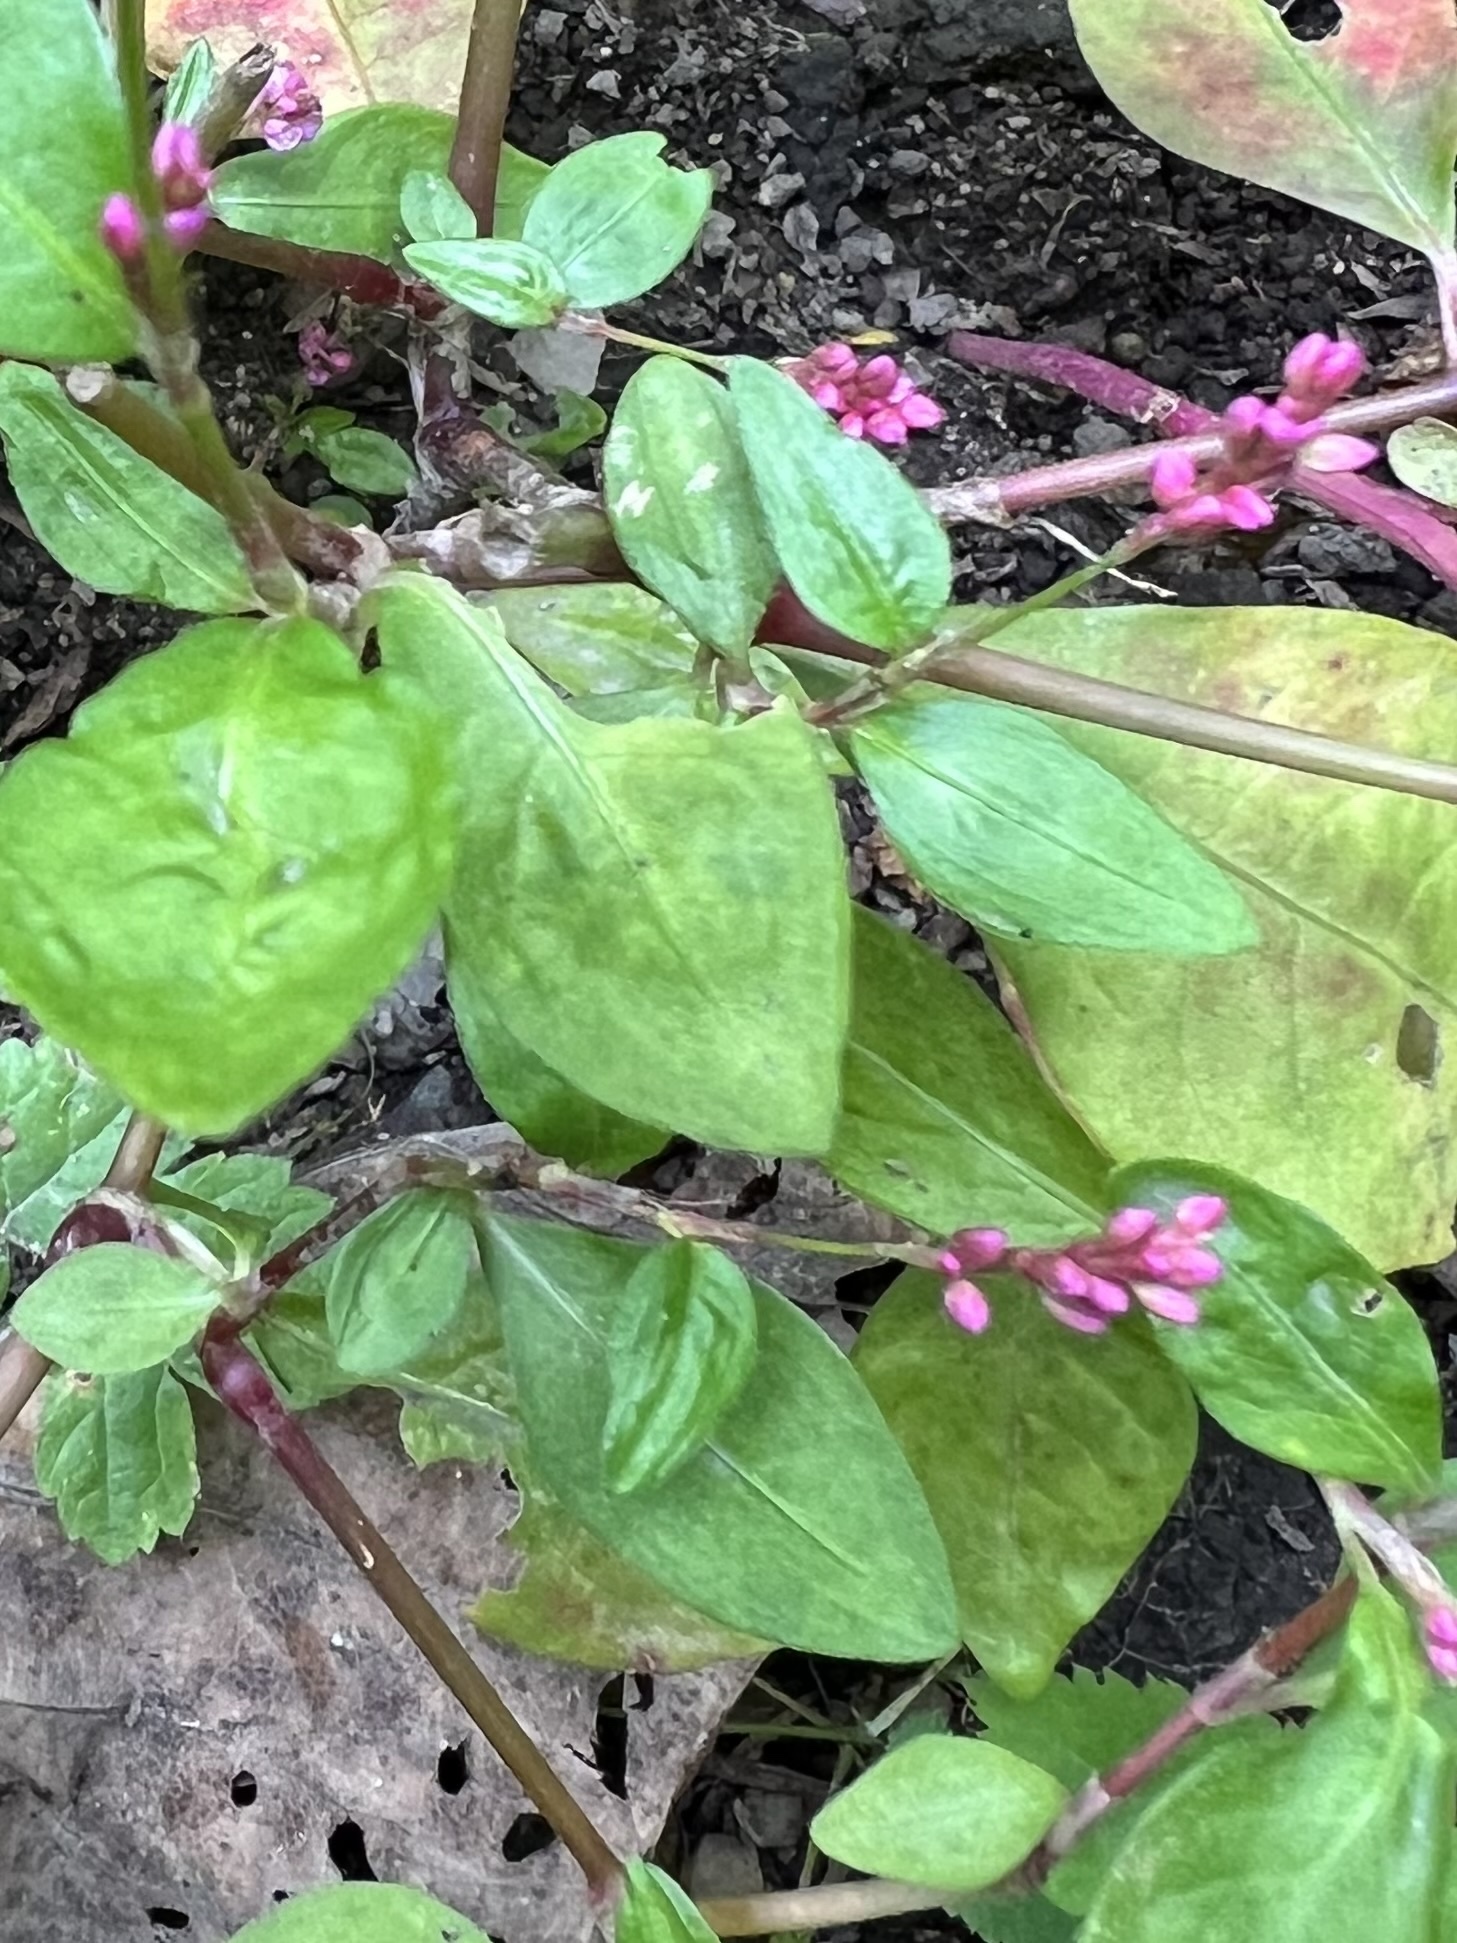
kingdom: Plantae
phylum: Tracheophyta
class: Magnoliopsida
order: Caryophyllales
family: Polygonaceae
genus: Persicaria
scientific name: Persicaria longiseta
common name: Bristly lady's-thumb
